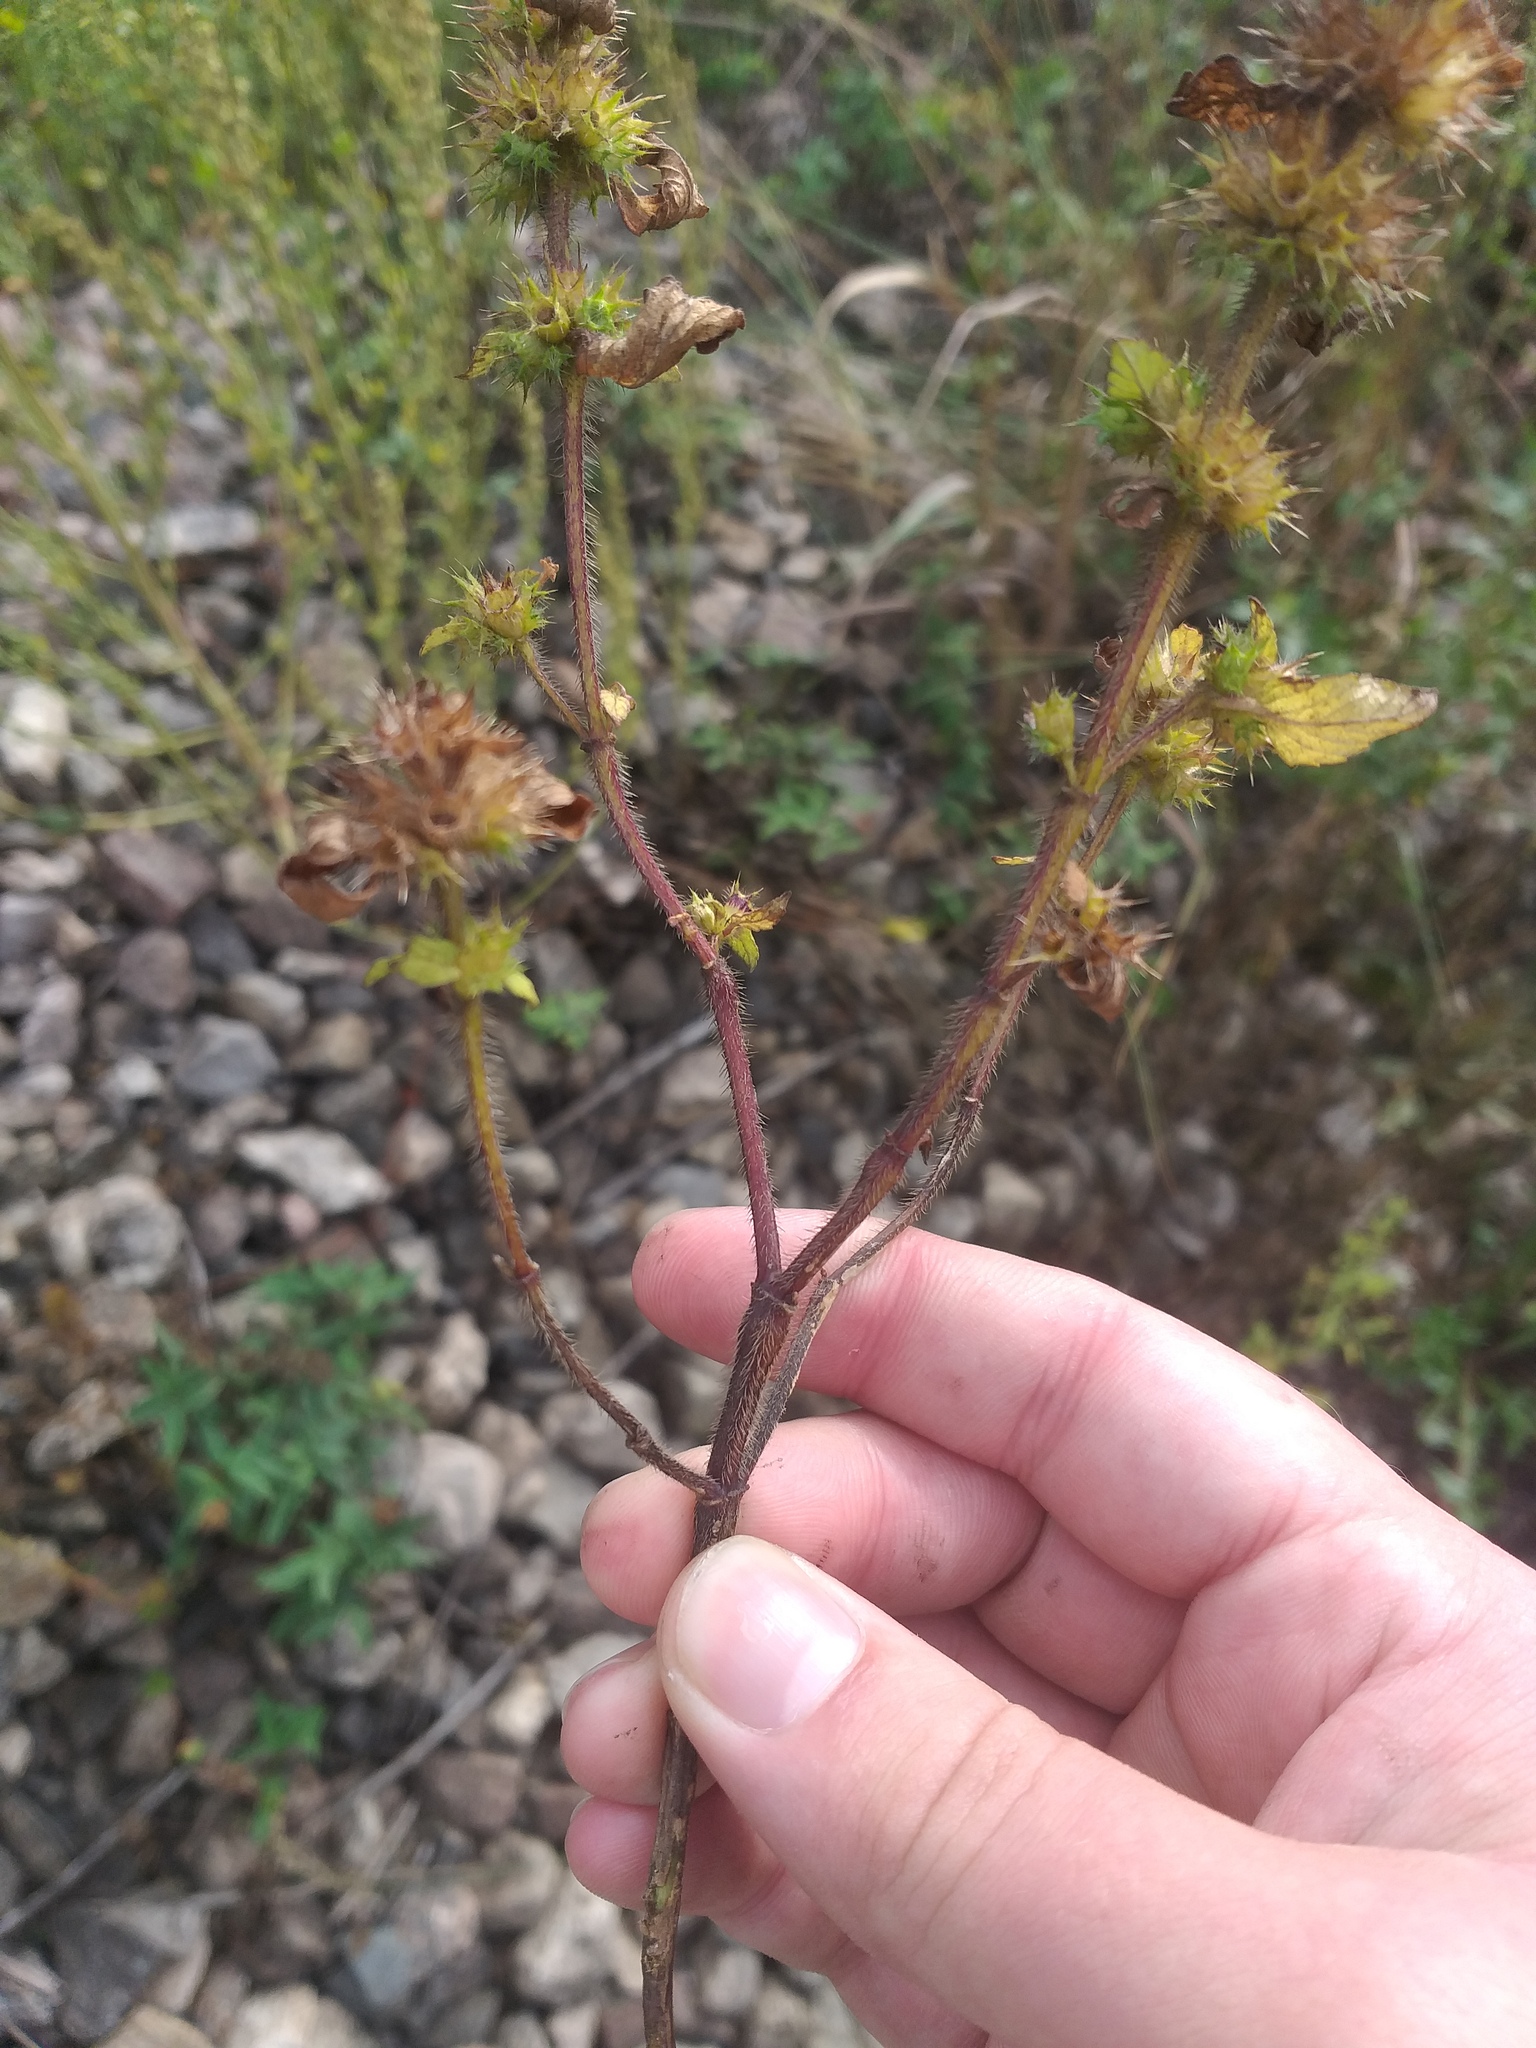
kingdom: Plantae
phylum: Tracheophyta
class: Magnoliopsida
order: Lamiales
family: Lamiaceae
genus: Galeopsis
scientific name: Galeopsis bifida
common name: Bifid hemp-nettle
